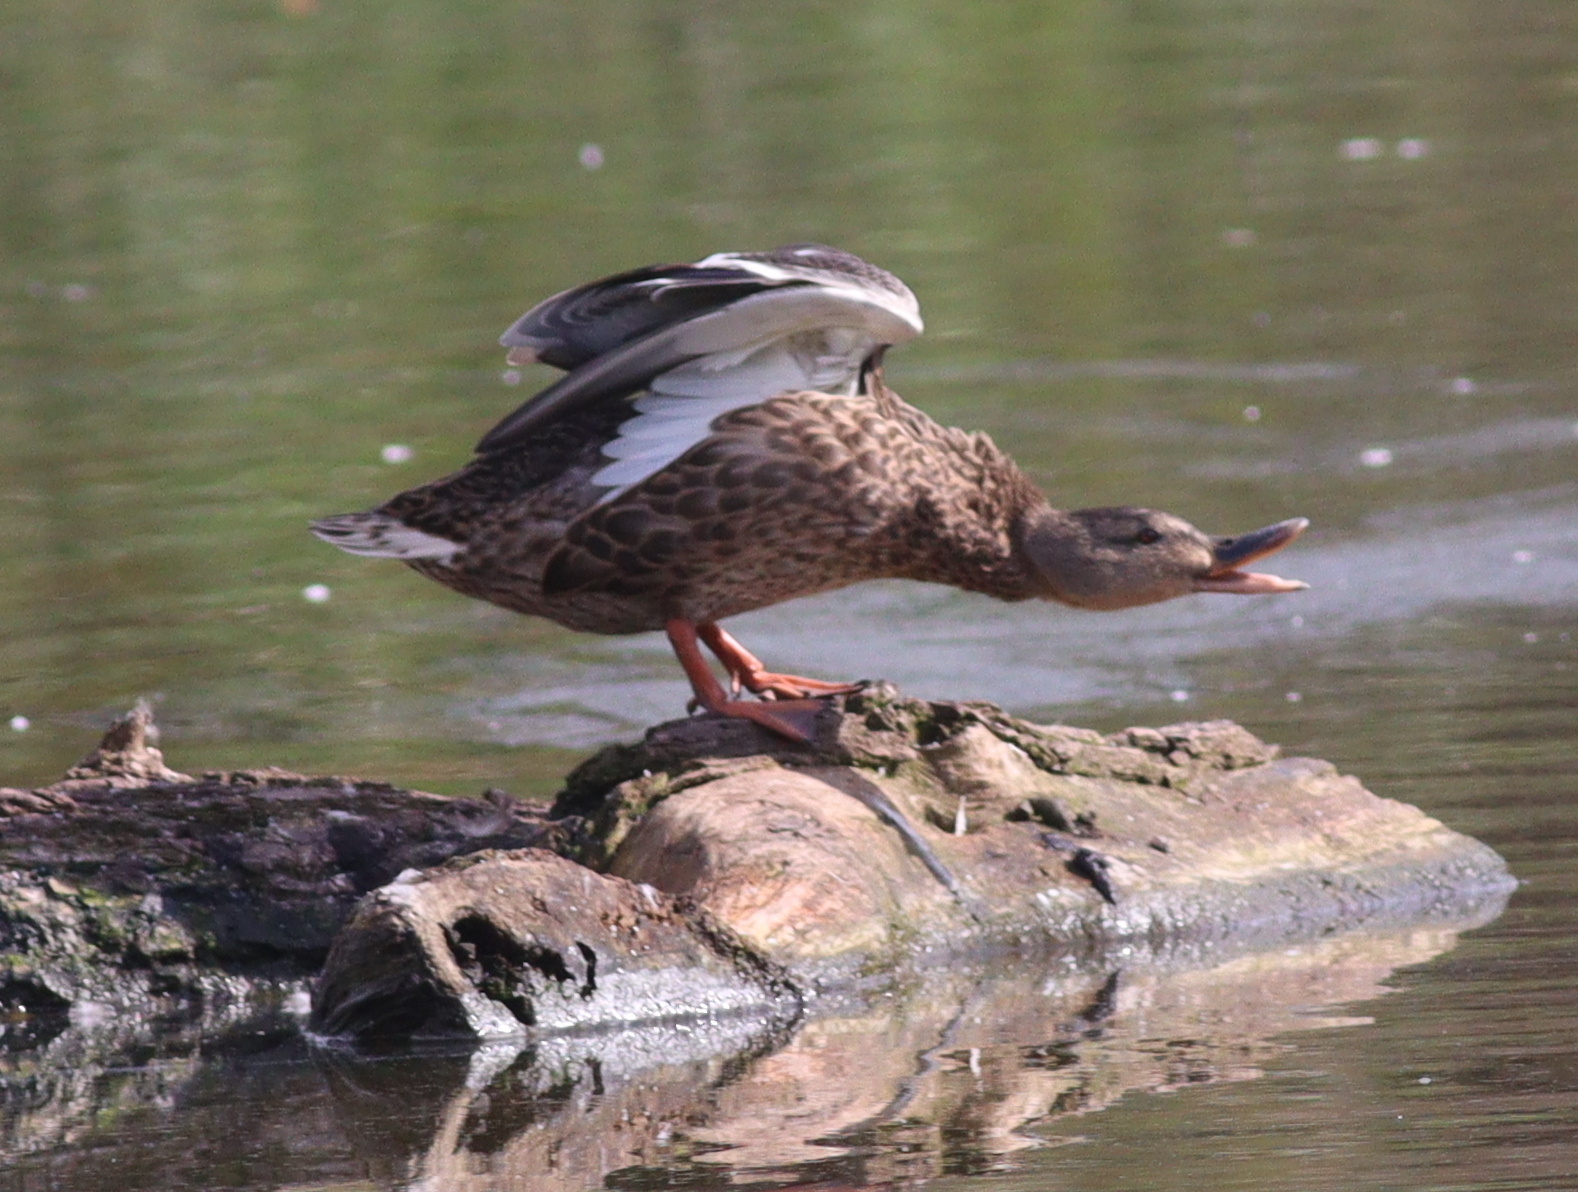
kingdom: Animalia
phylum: Chordata
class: Aves
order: Anseriformes
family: Anatidae
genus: Anas
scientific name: Anas platyrhynchos
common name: Mallard
